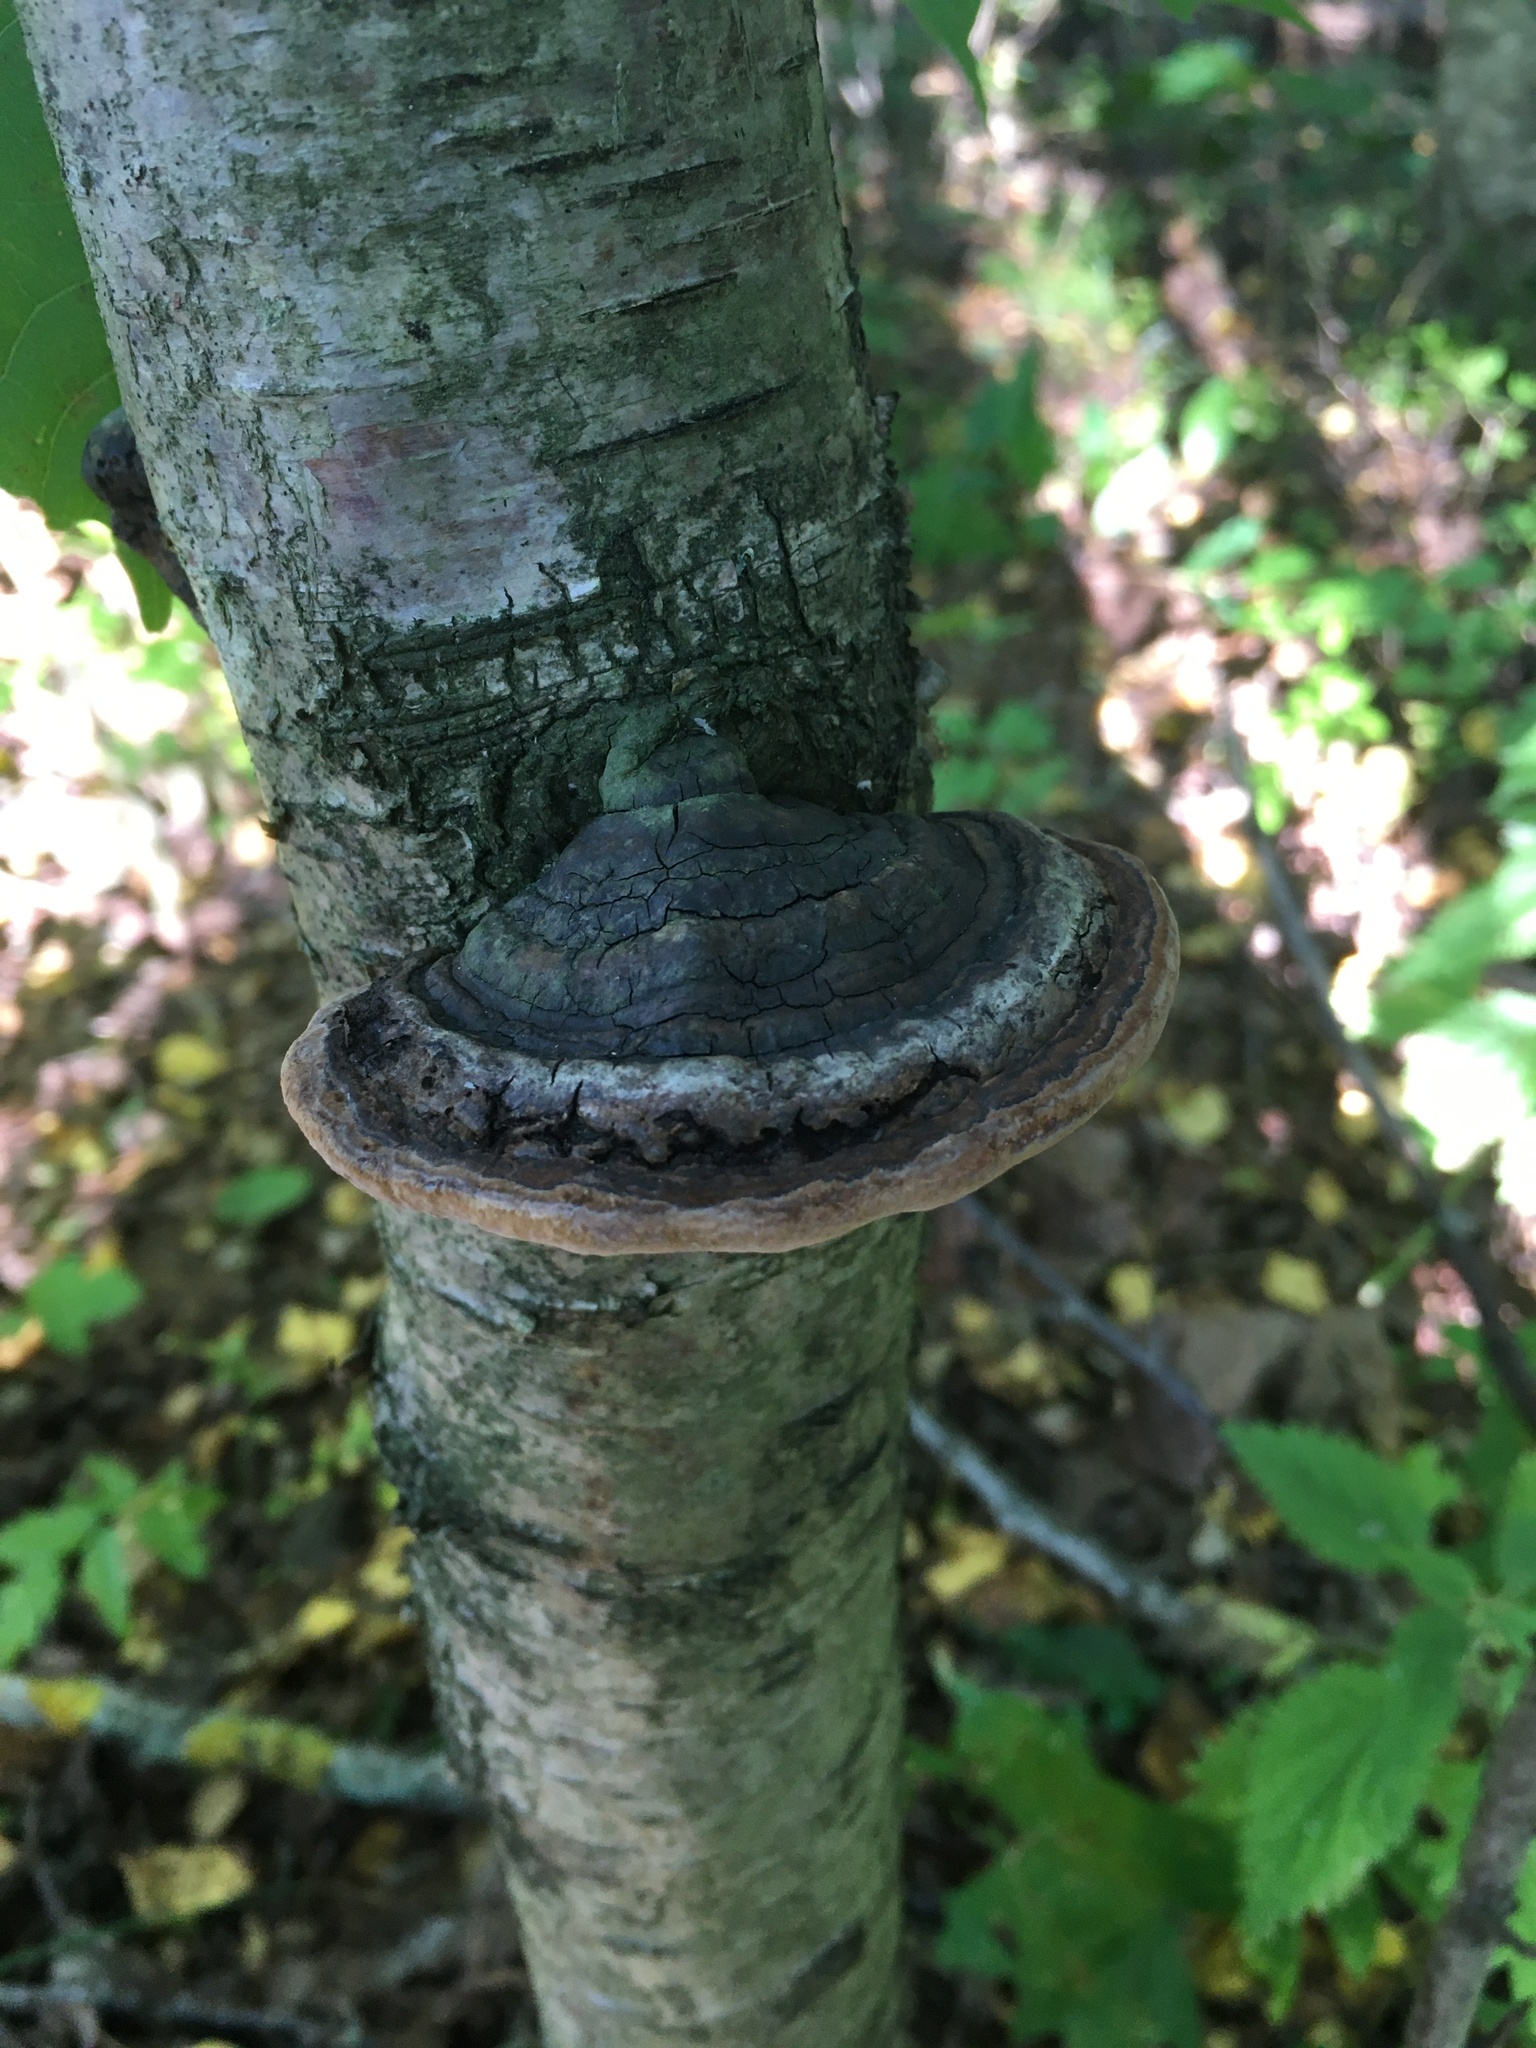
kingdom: Fungi
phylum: Basidiomycota
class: Agaricomycetes
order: Hymenochaetales
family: Hymenochaetaceae
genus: Phellinus
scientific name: Phellinus igniarius
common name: Willow bracket
